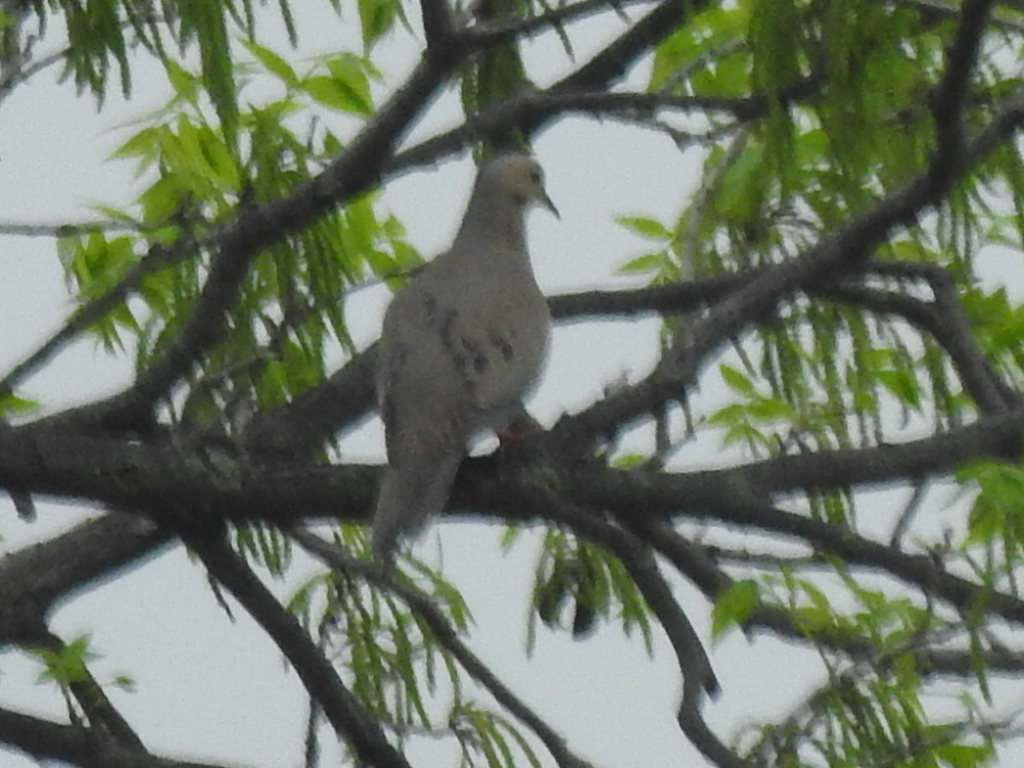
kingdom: Animalia
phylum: Chordata
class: Aves
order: Columbiformes
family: Columbidae
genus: Zenaida
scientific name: Zenaida macroura
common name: Mourning dove
